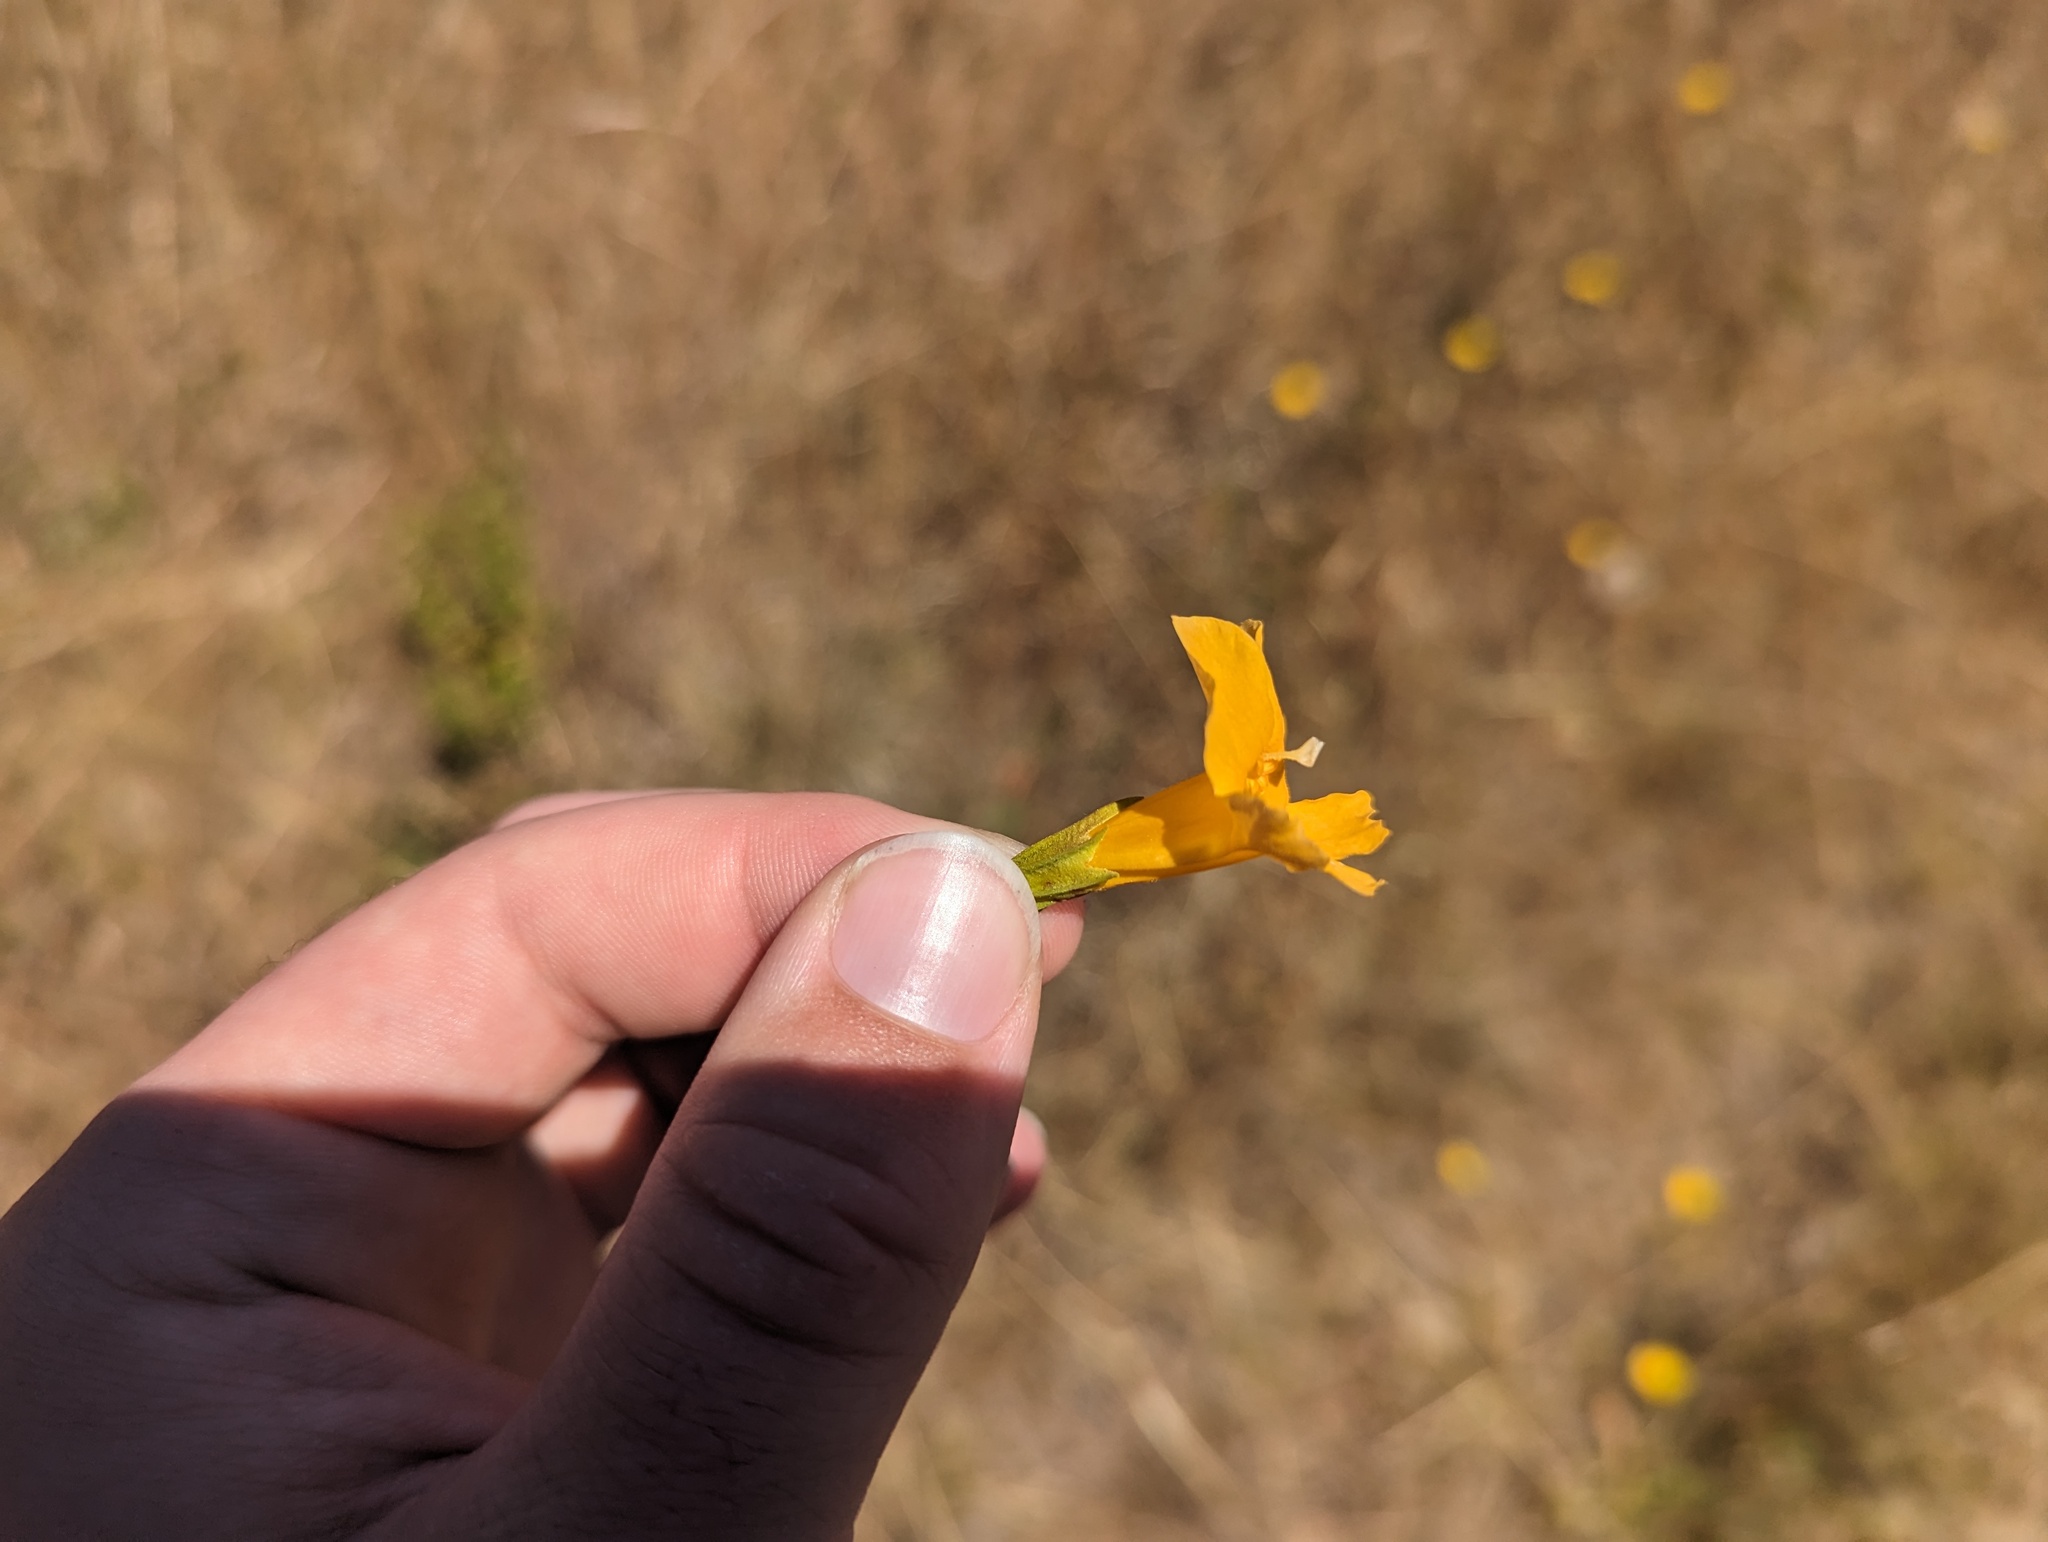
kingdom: Plantae
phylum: Tracheophyta
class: Magnoliopsida
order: Lamiales
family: Phrymaceae
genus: Diplacus
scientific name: Diplacus aurantiacus
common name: Bush monkey-flower
